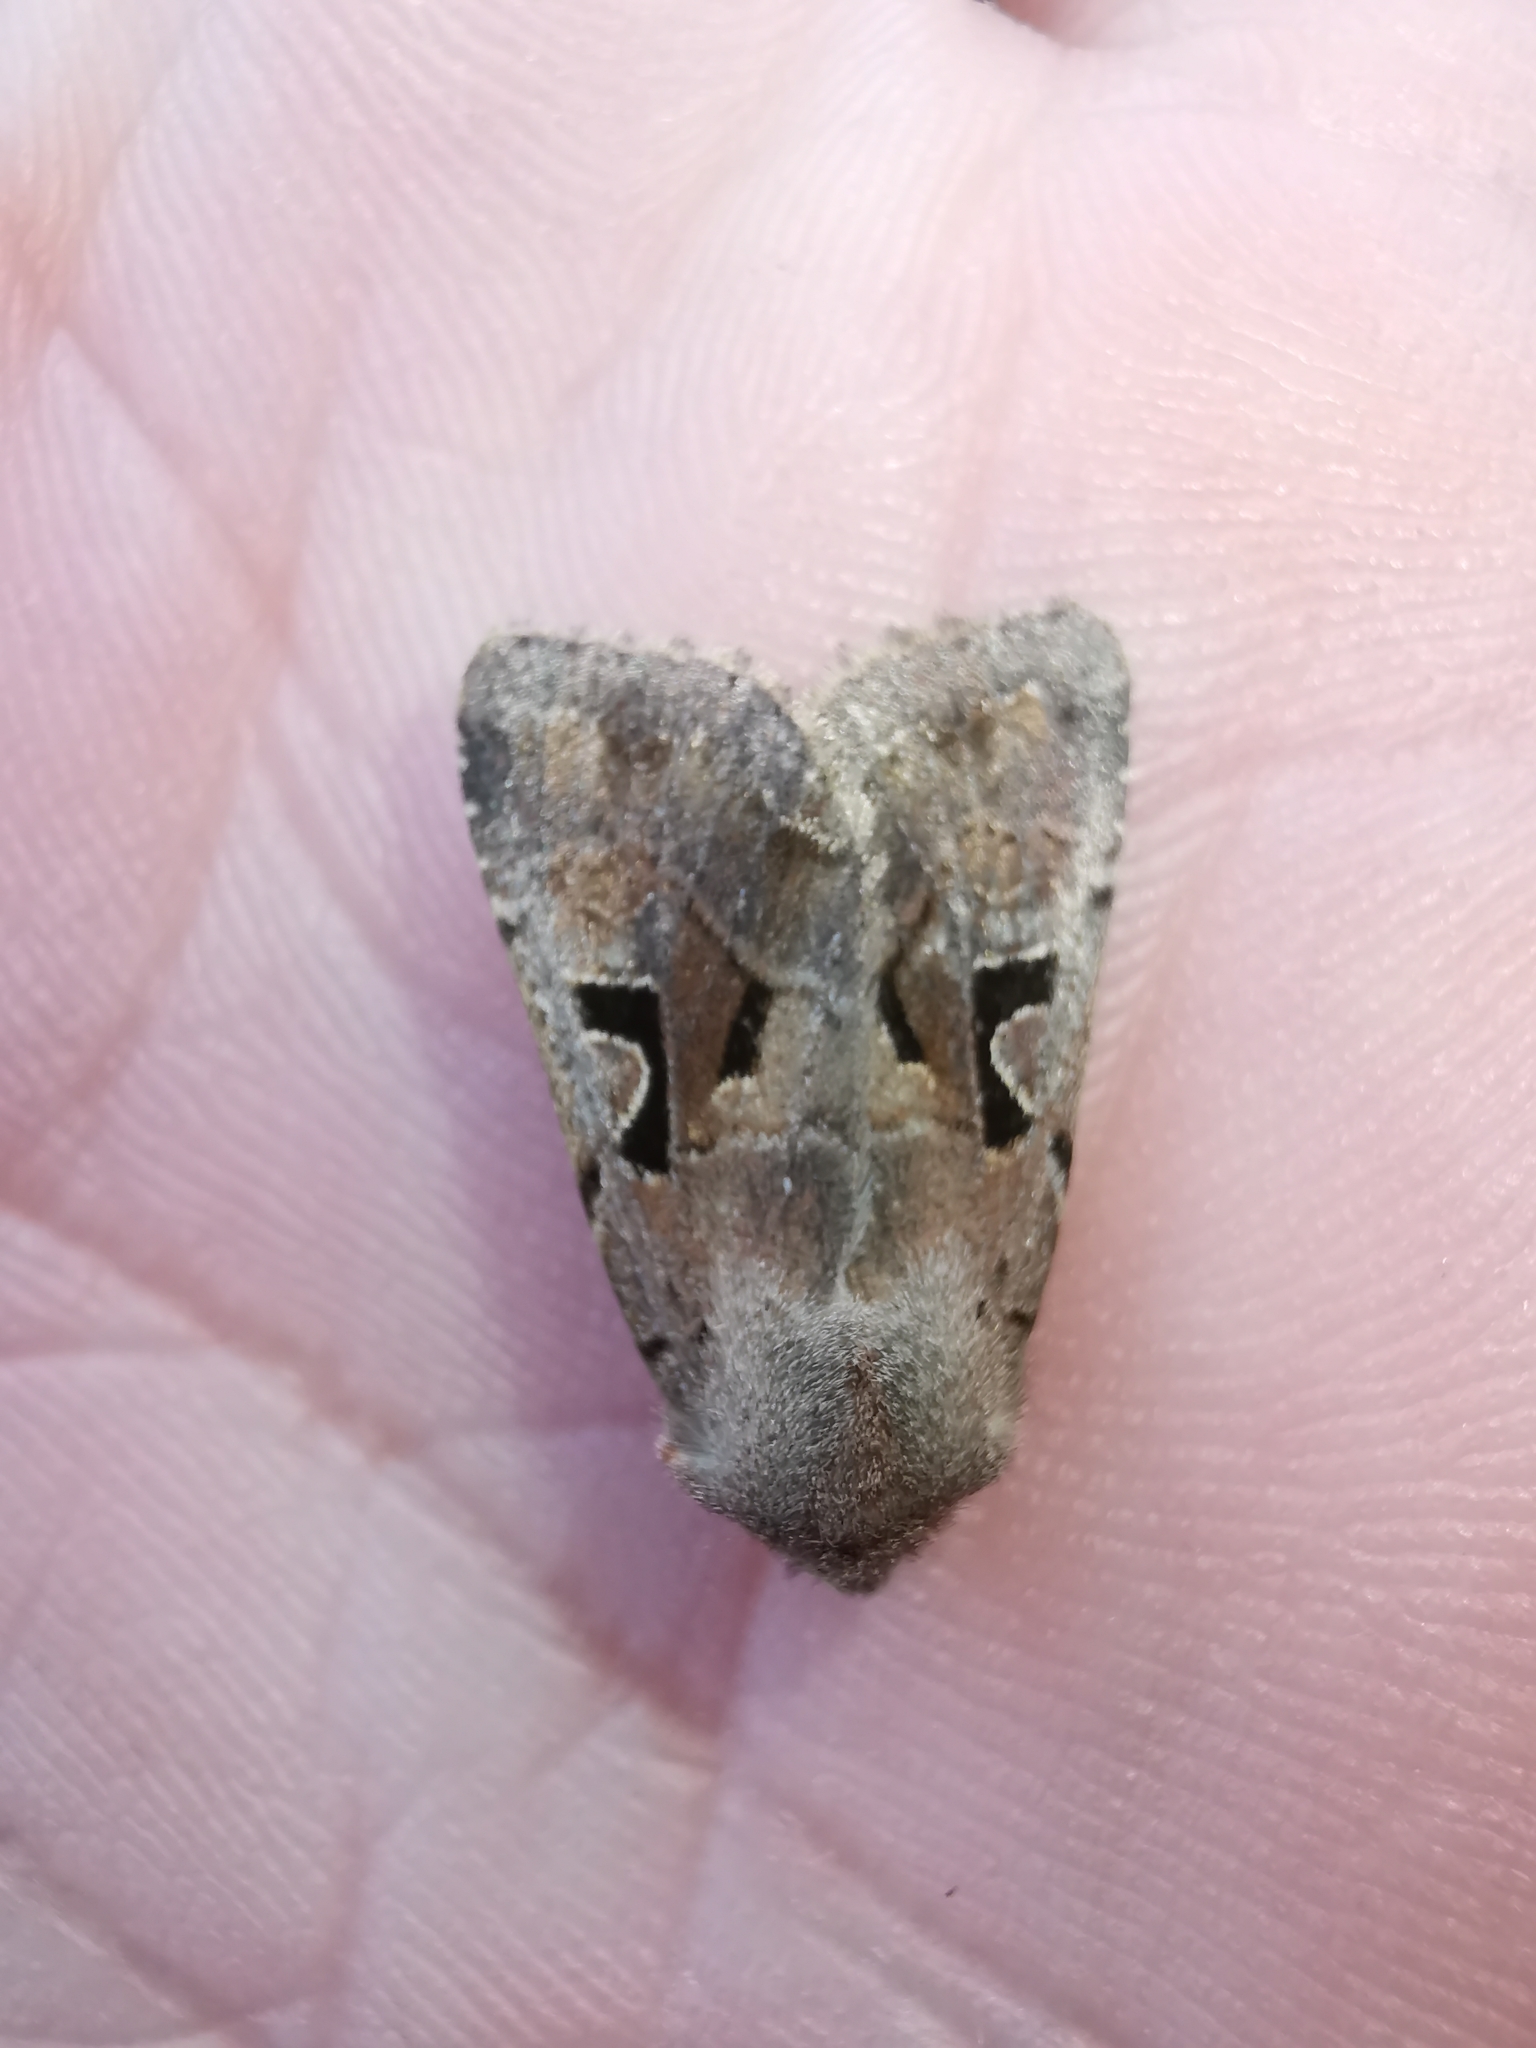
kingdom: Animalia
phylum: Arthropoda
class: Insecta
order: Lepidoptera
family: Noctuidae
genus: Orthosia
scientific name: Orthosia gothica
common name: Hebrew character
